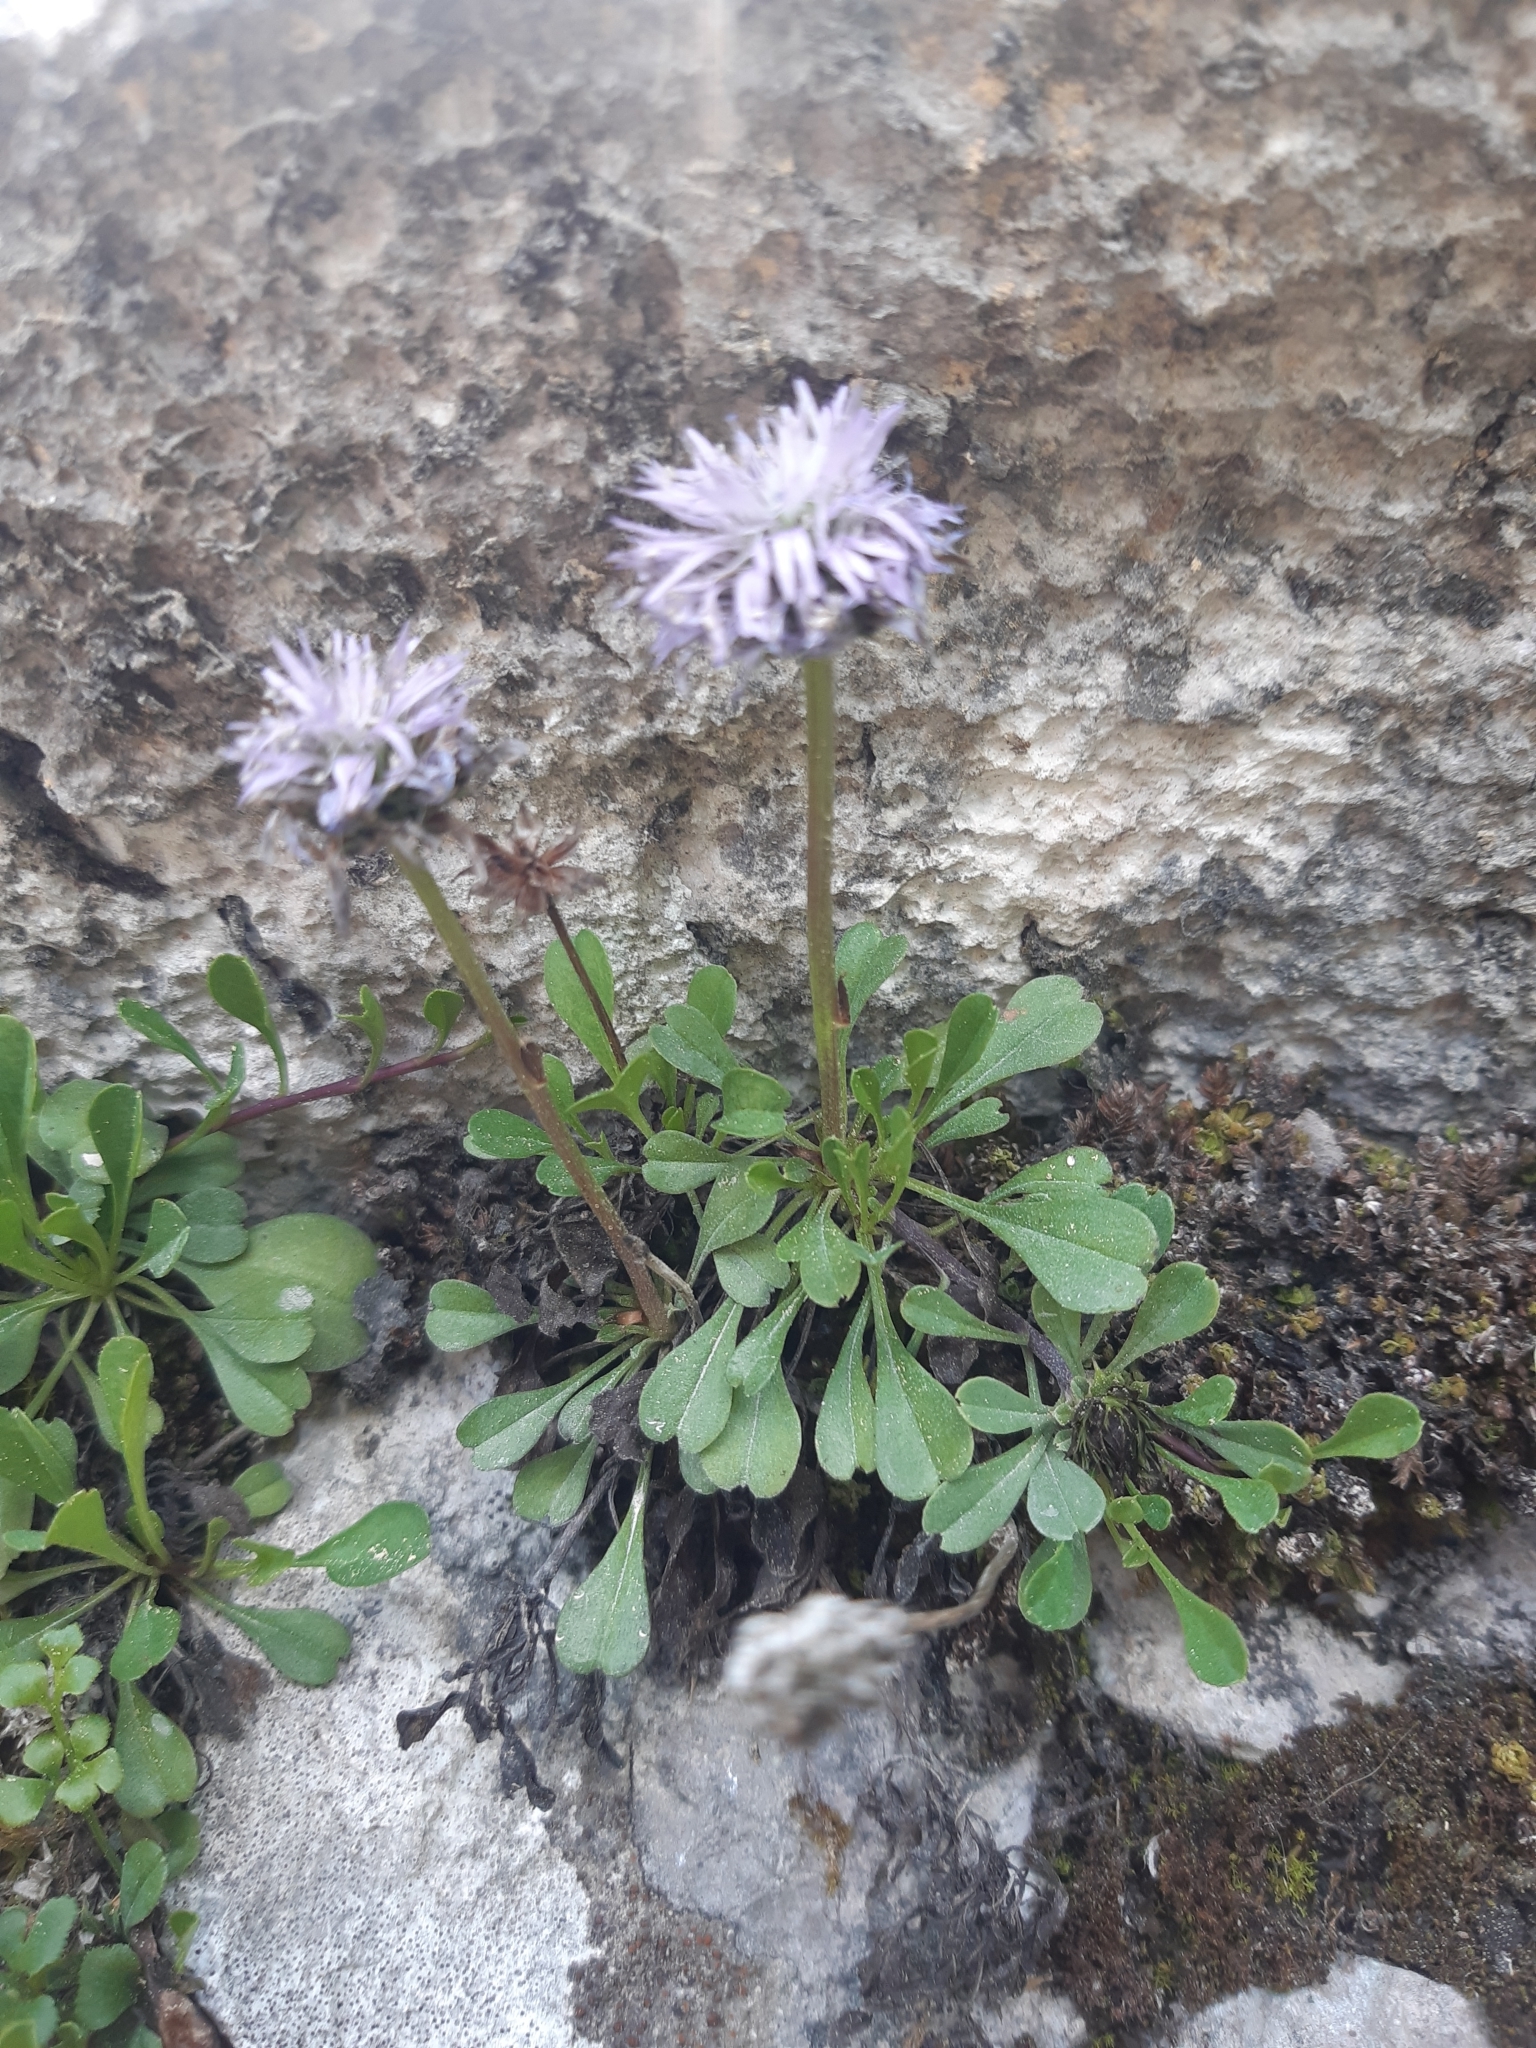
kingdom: Plantae
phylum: Tracheophyta
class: Magnoliopsida
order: Lamiales
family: Plantaginaceae
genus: Globularia
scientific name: Globularia cordifolia
